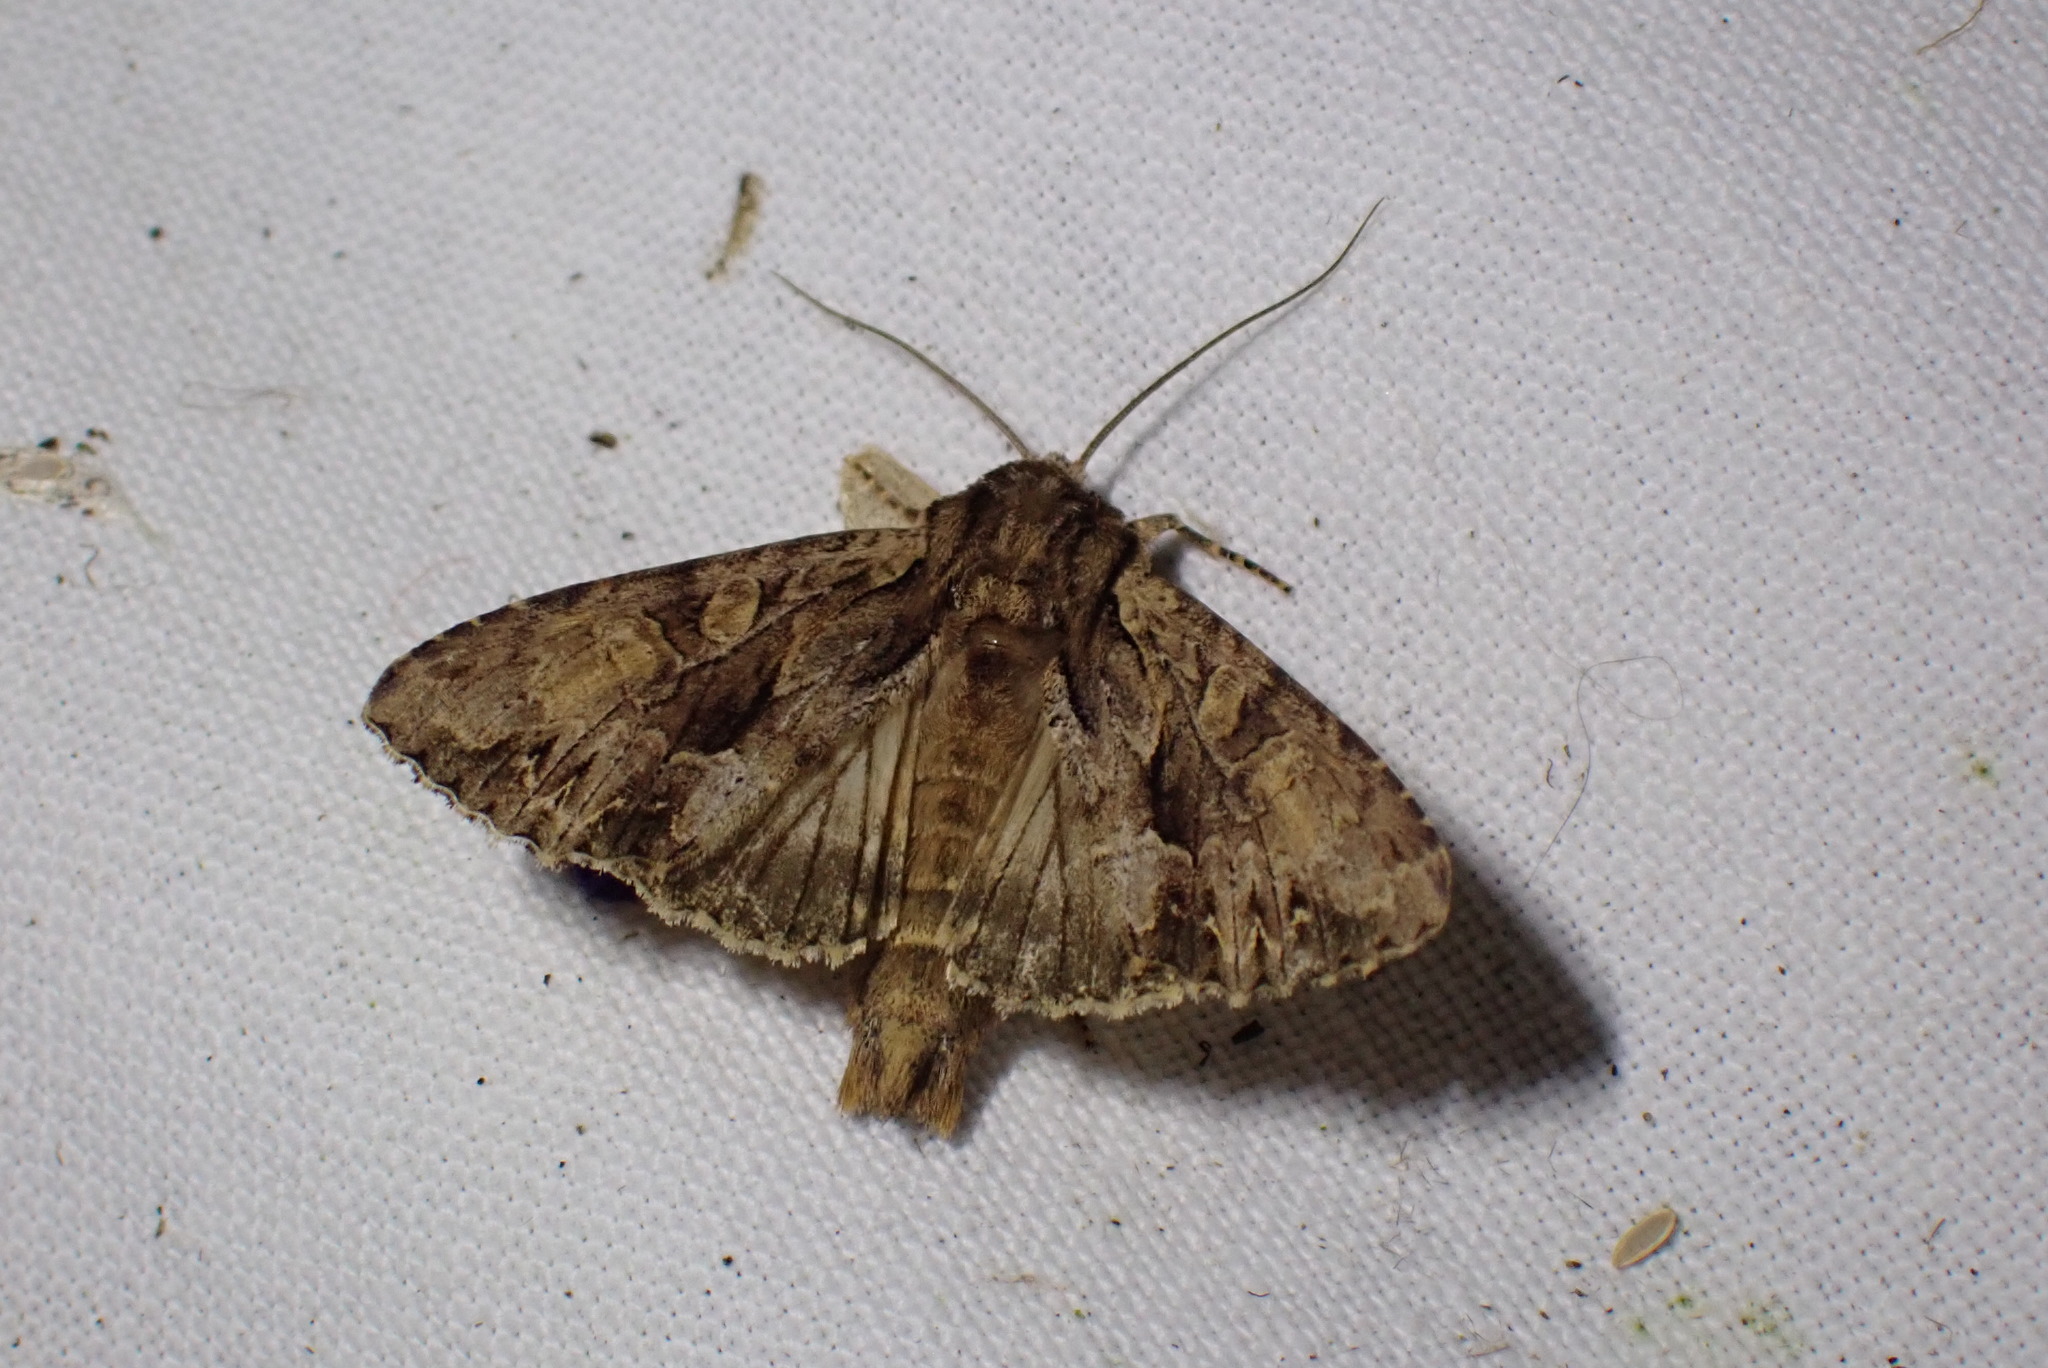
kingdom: Animalia
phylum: Arthropoda
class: Insecta
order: Lepidoptera
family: Noctuidae
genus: Apamea
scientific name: Apamea monoglypha
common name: Dark arches
